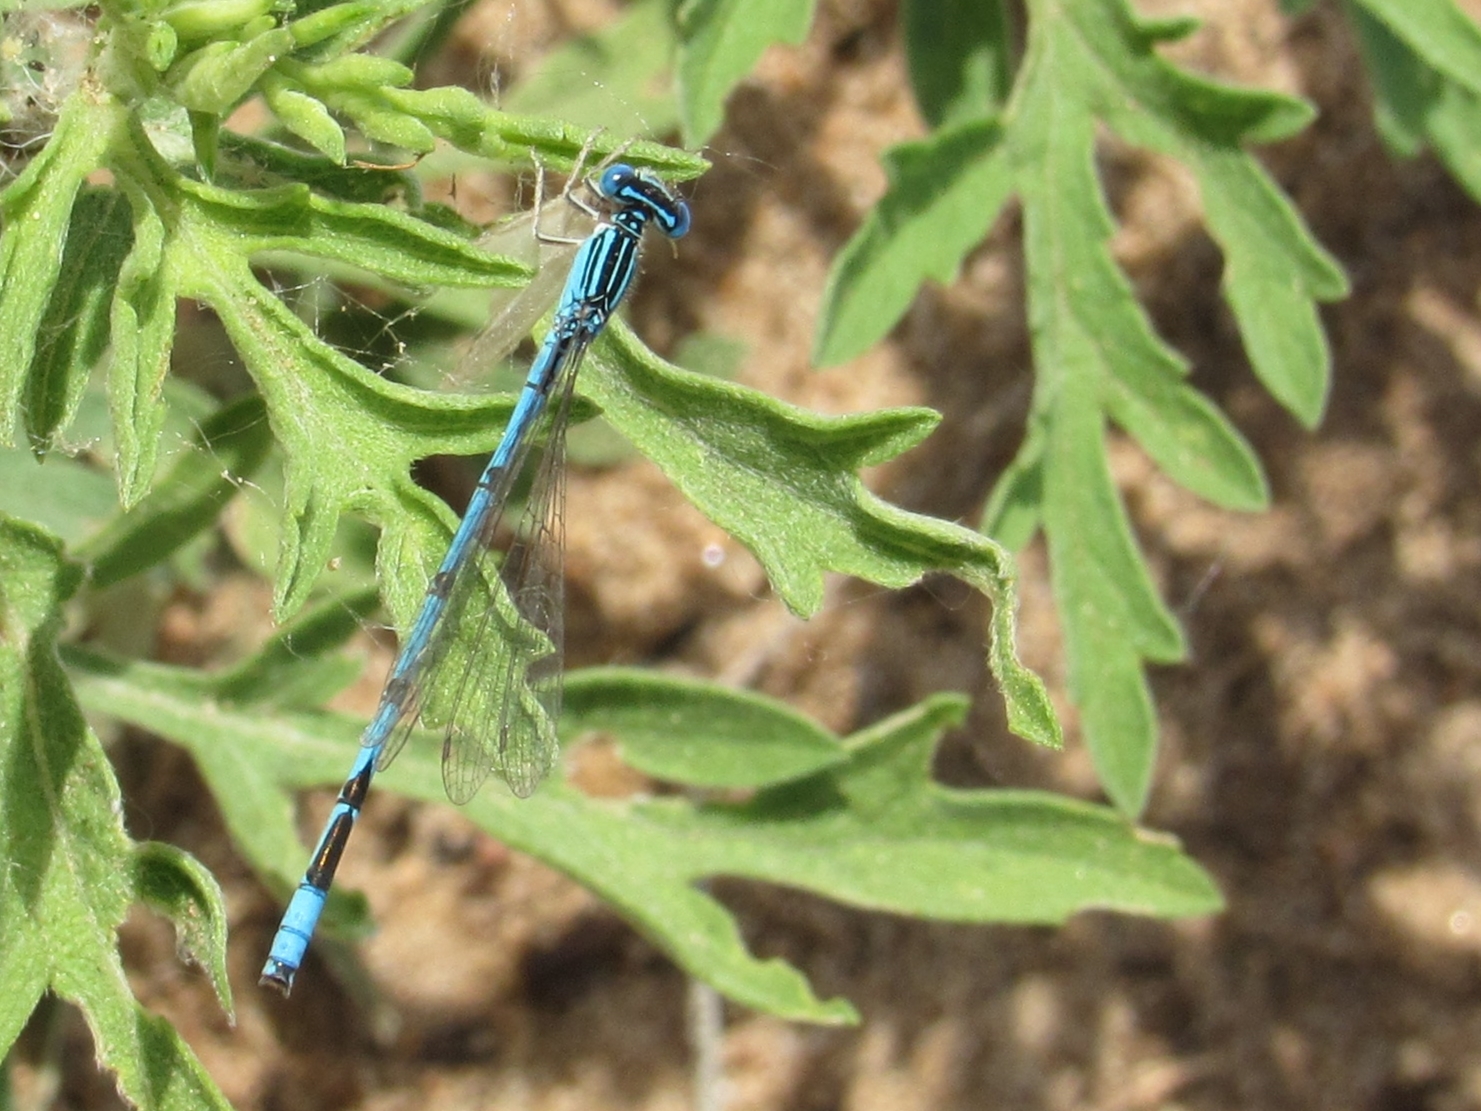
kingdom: Animalia
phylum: Arthropoda
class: Insecta
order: Odonata
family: Coenagrionidae
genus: Enallagma
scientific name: Enallagma basidens
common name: Double-striped bluet
